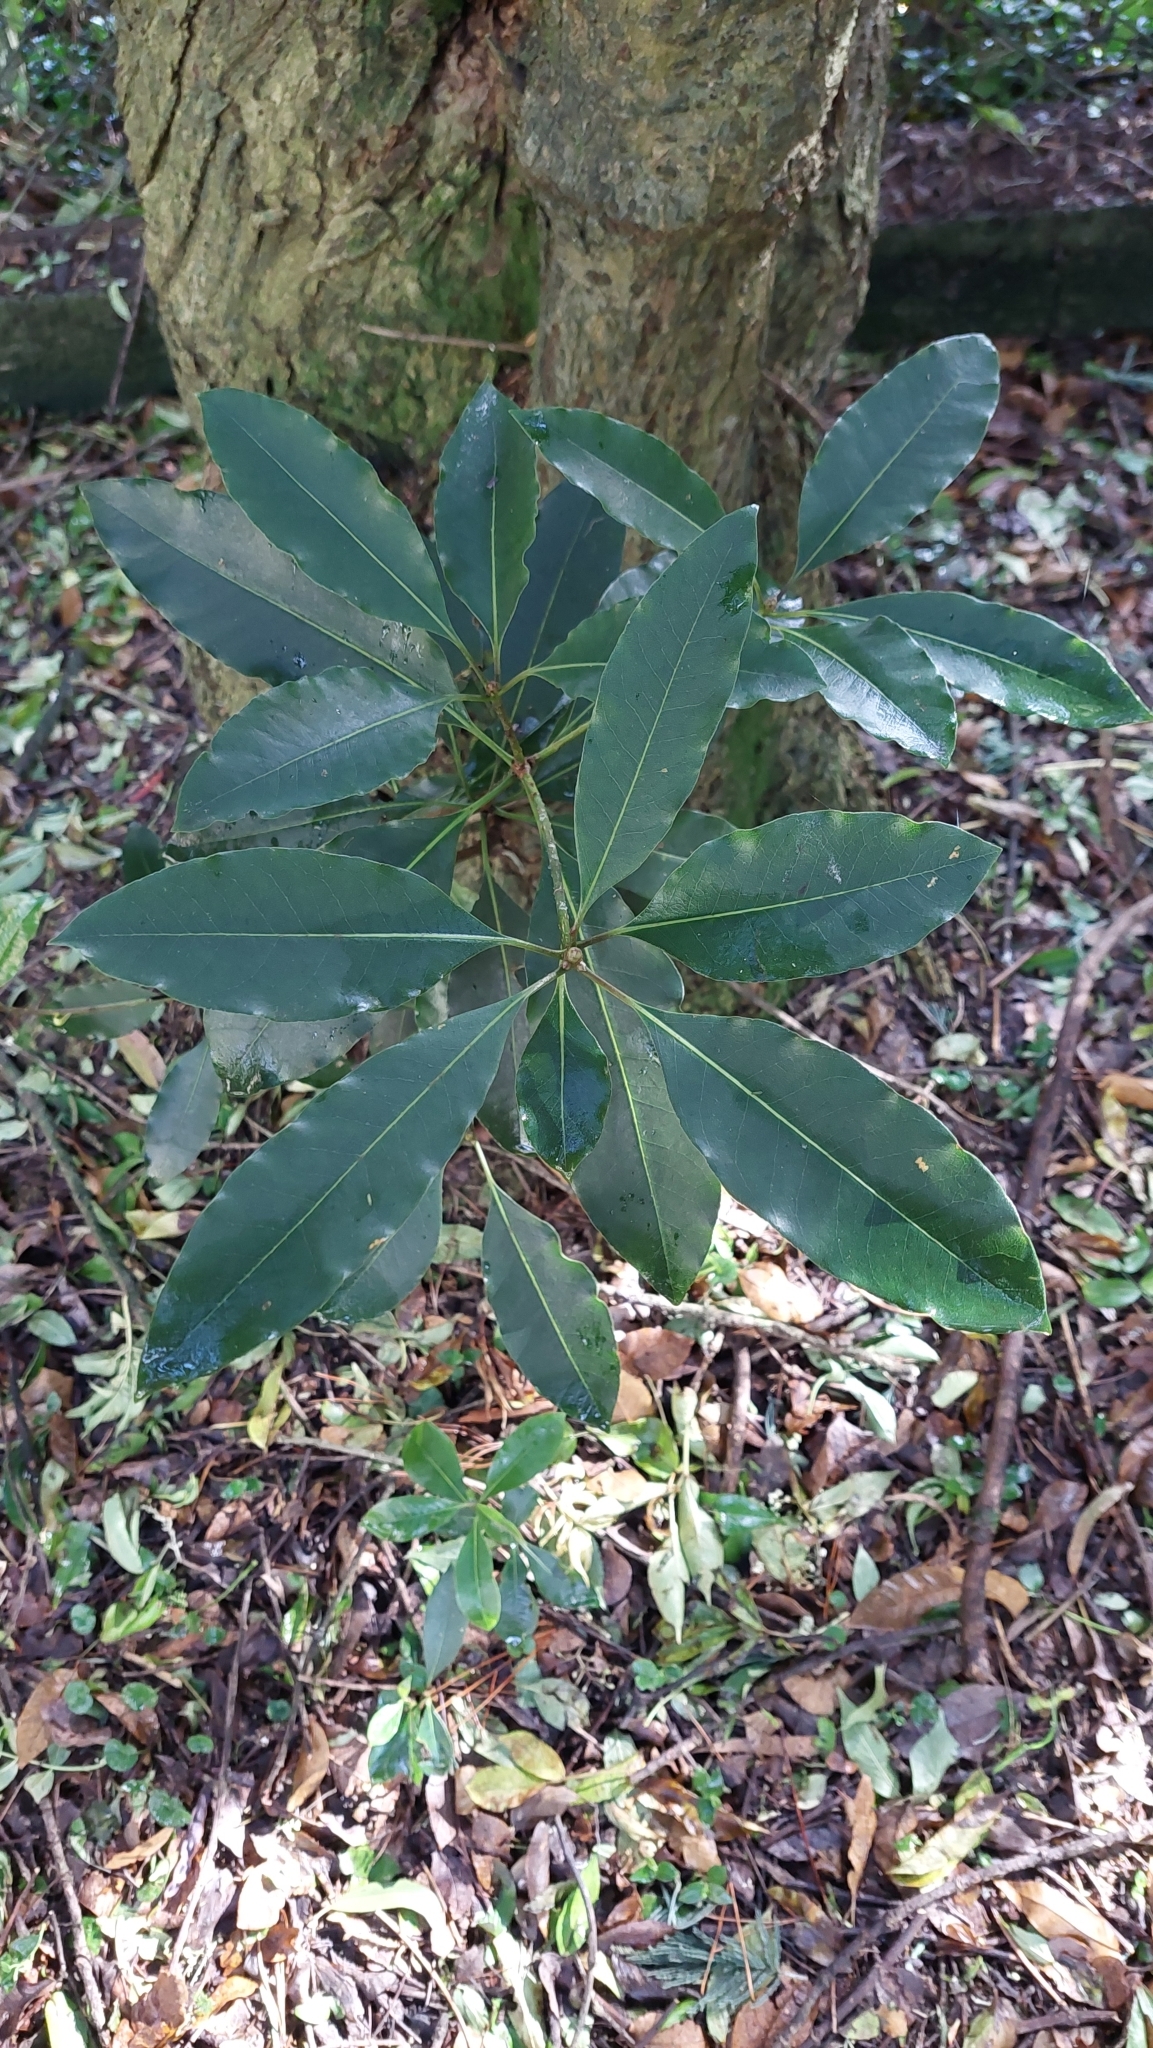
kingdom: Plantae
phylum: Tracheophyta
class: Magnoliopsida
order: Apiales
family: Pittosporaceae
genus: Pittosporum
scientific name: Pittosporum undulatum
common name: Australian cheesewood
